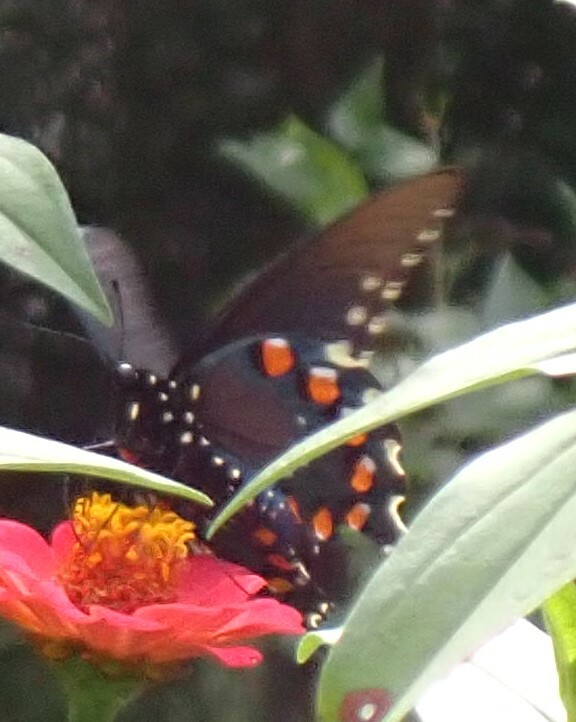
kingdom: Animalia
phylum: Arthropoda
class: Insecta
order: Lepidoptera
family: Papilionidae
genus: Battus
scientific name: Battus philenor
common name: Pipevine swallowtail
